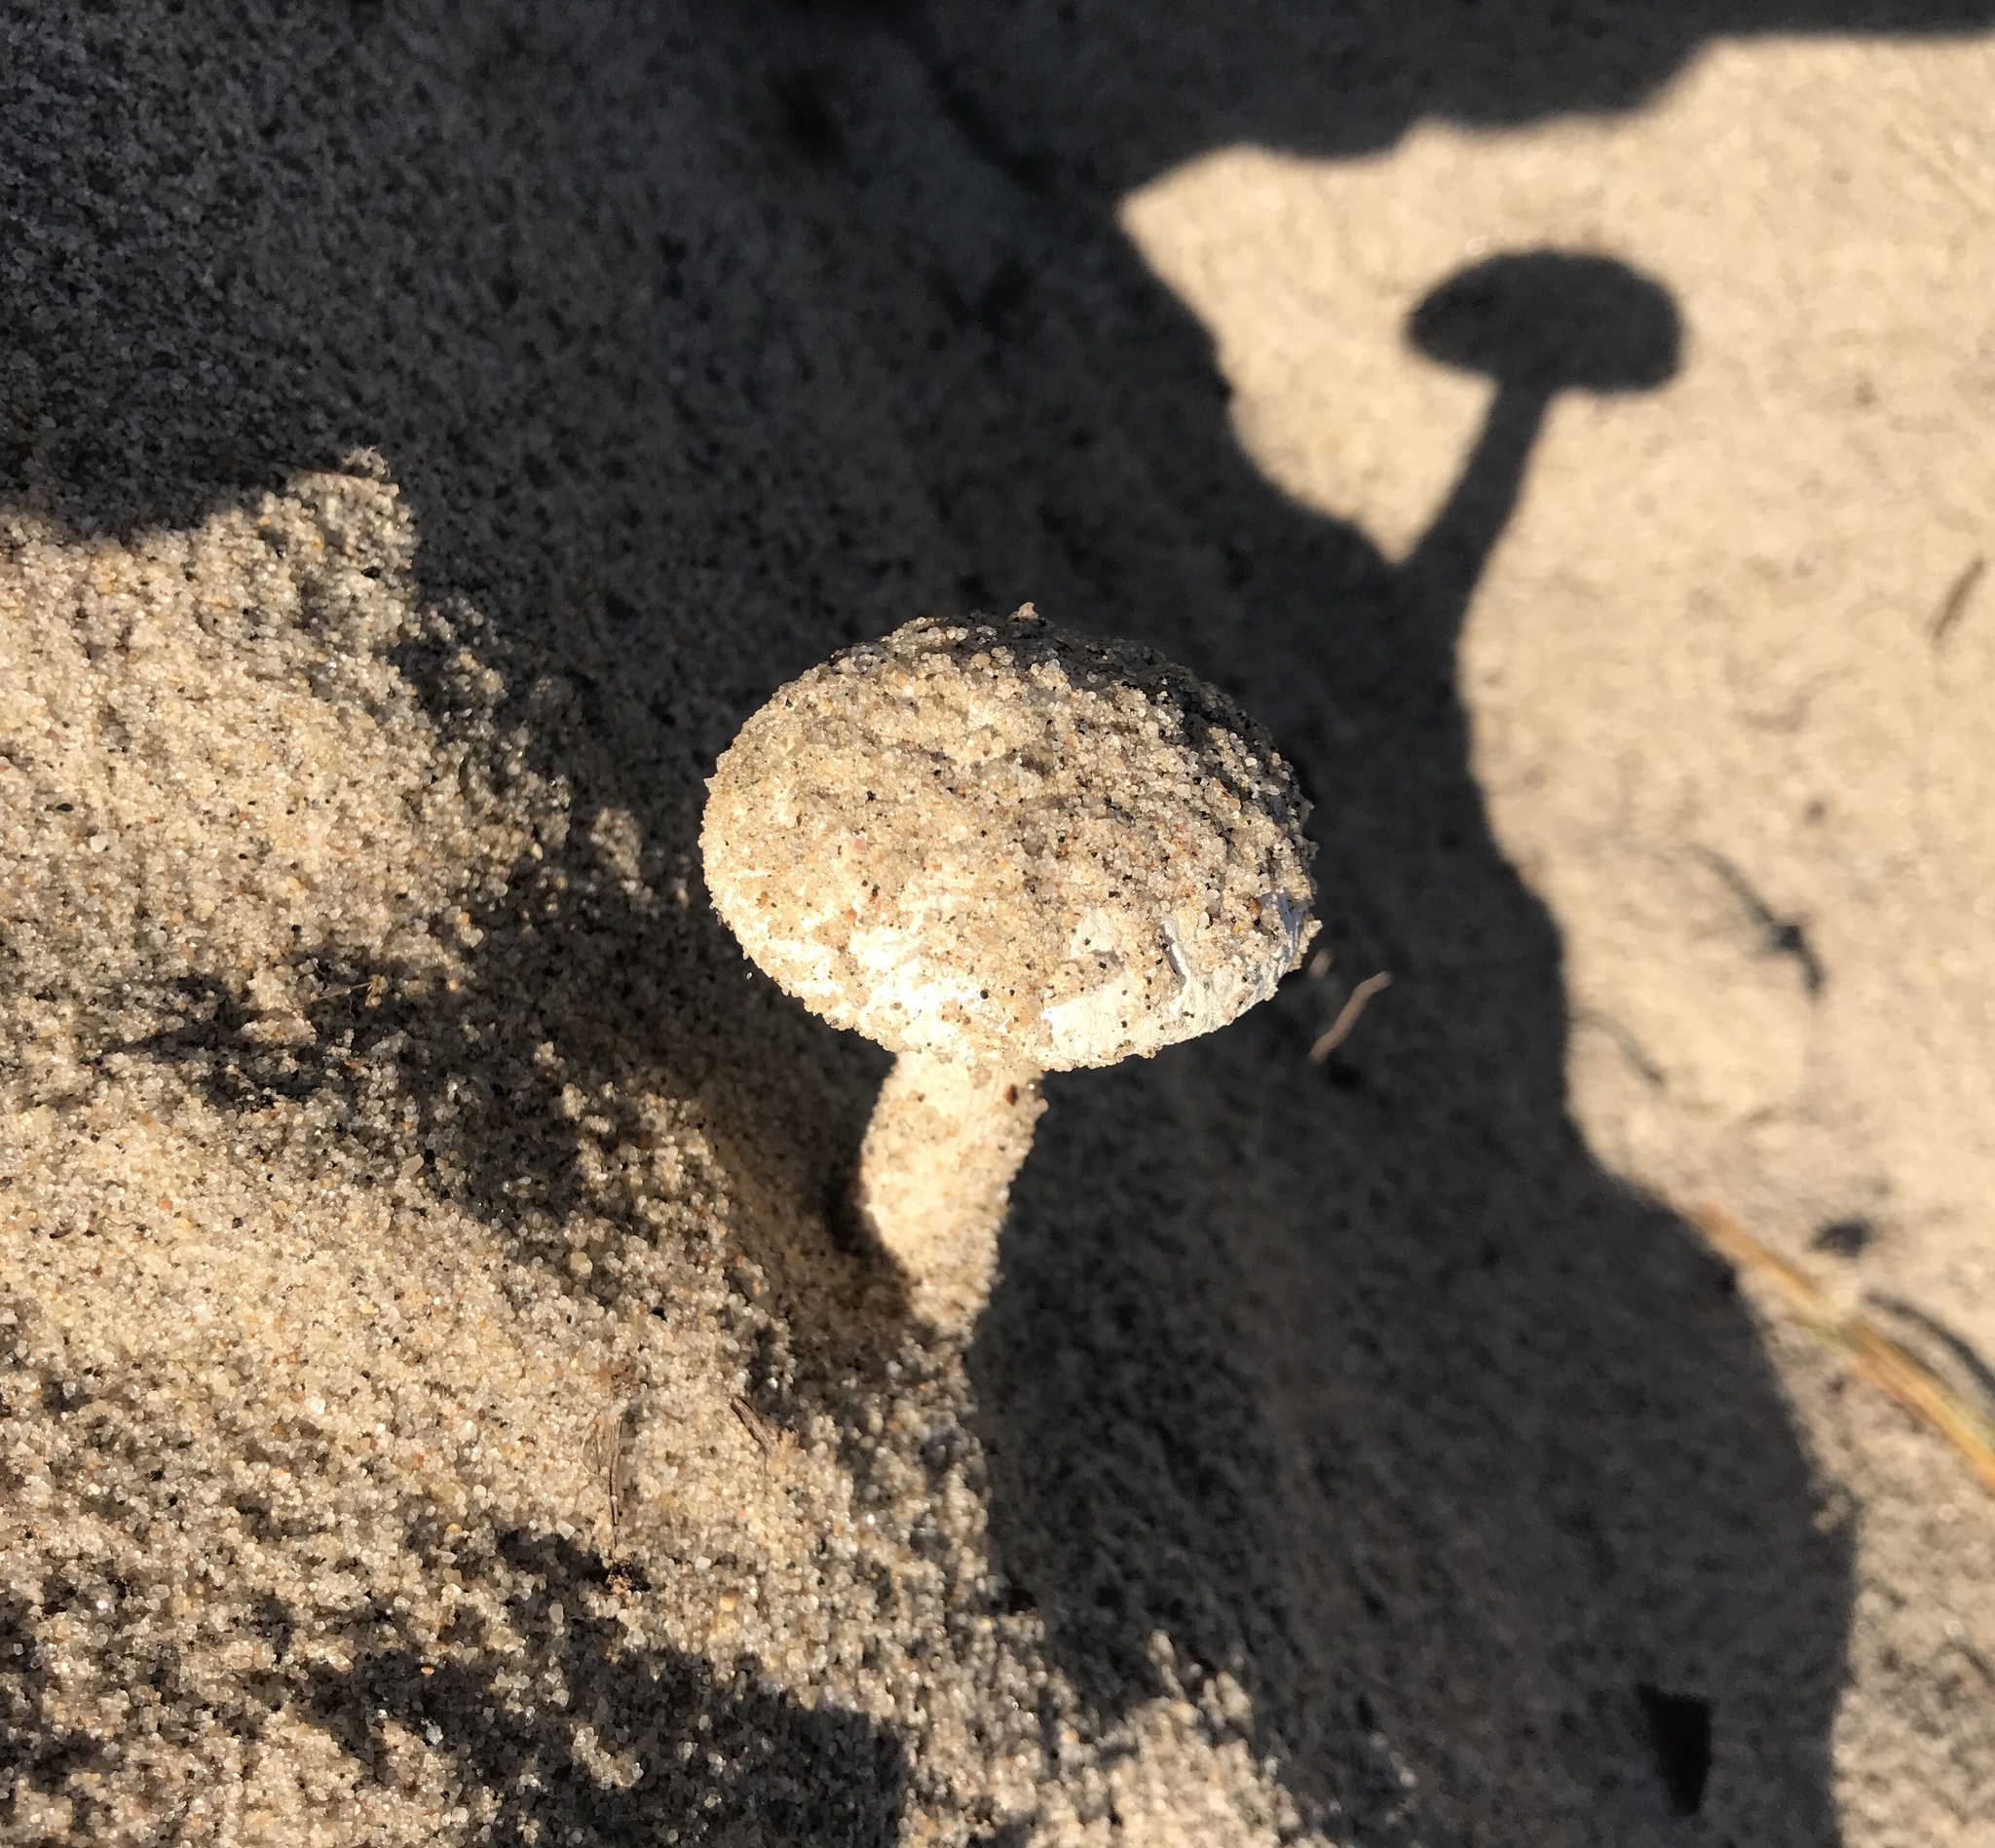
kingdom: Fungi
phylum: Basidiomycota
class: Agaricomycetes
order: Agaricales
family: Amanitaceae
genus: Amanita
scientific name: Amanita subsolitaria
